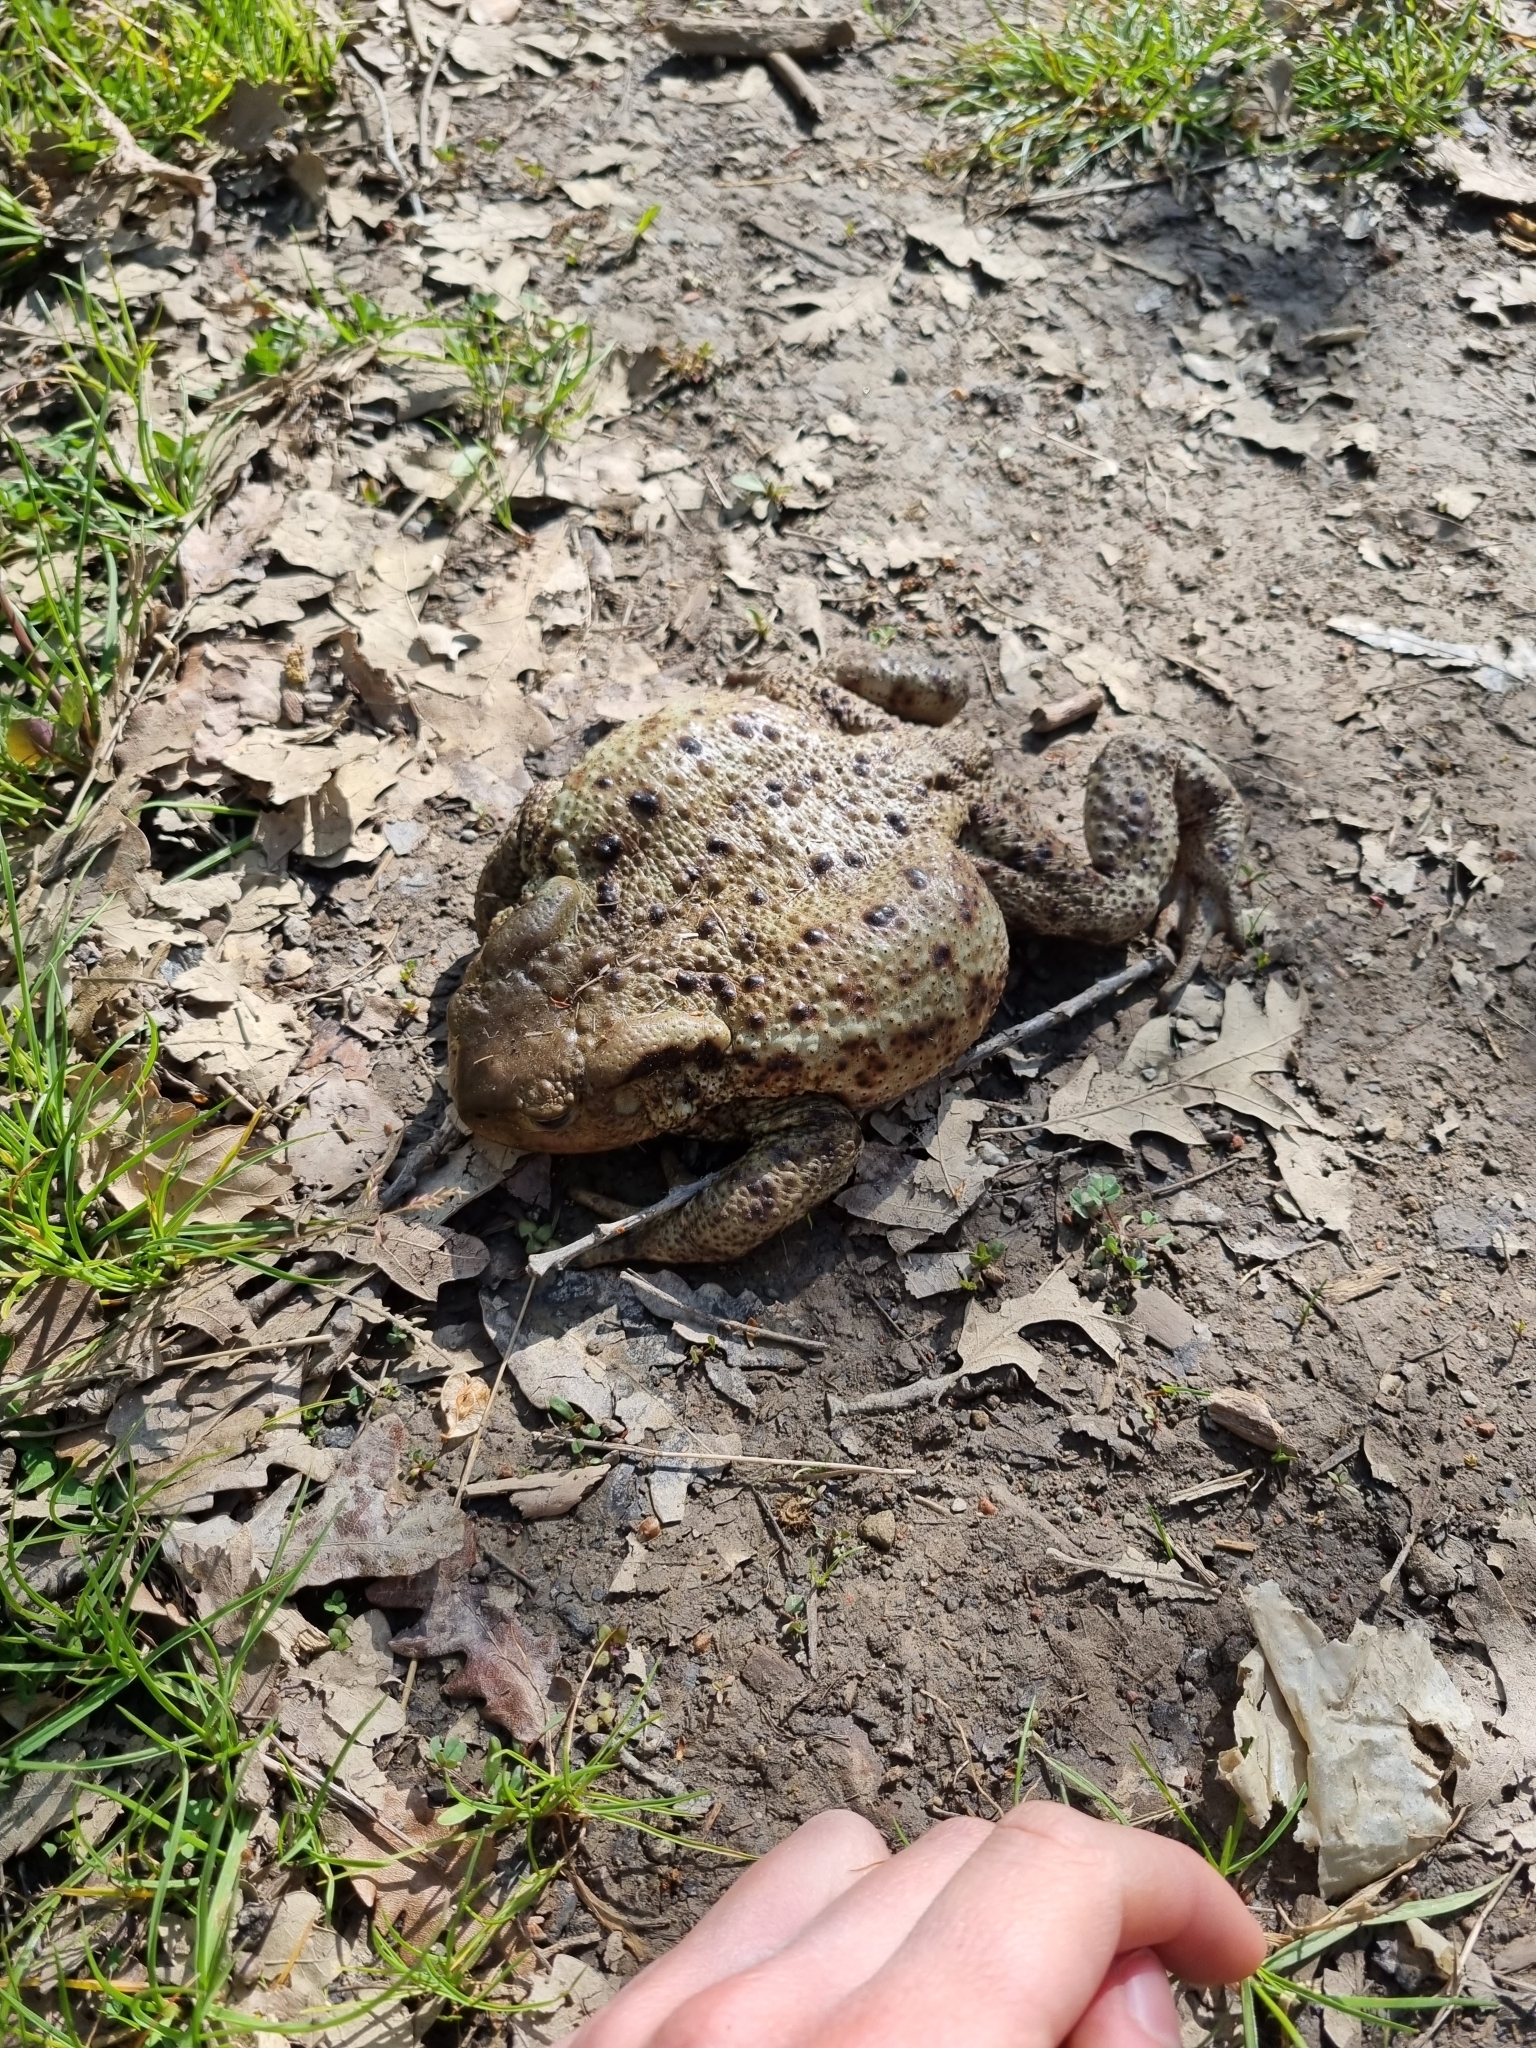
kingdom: Animalia
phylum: Chordata
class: Amphibia
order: Anura
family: Bufonidae
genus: Bufo
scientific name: Bufo bufo
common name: Common toad
